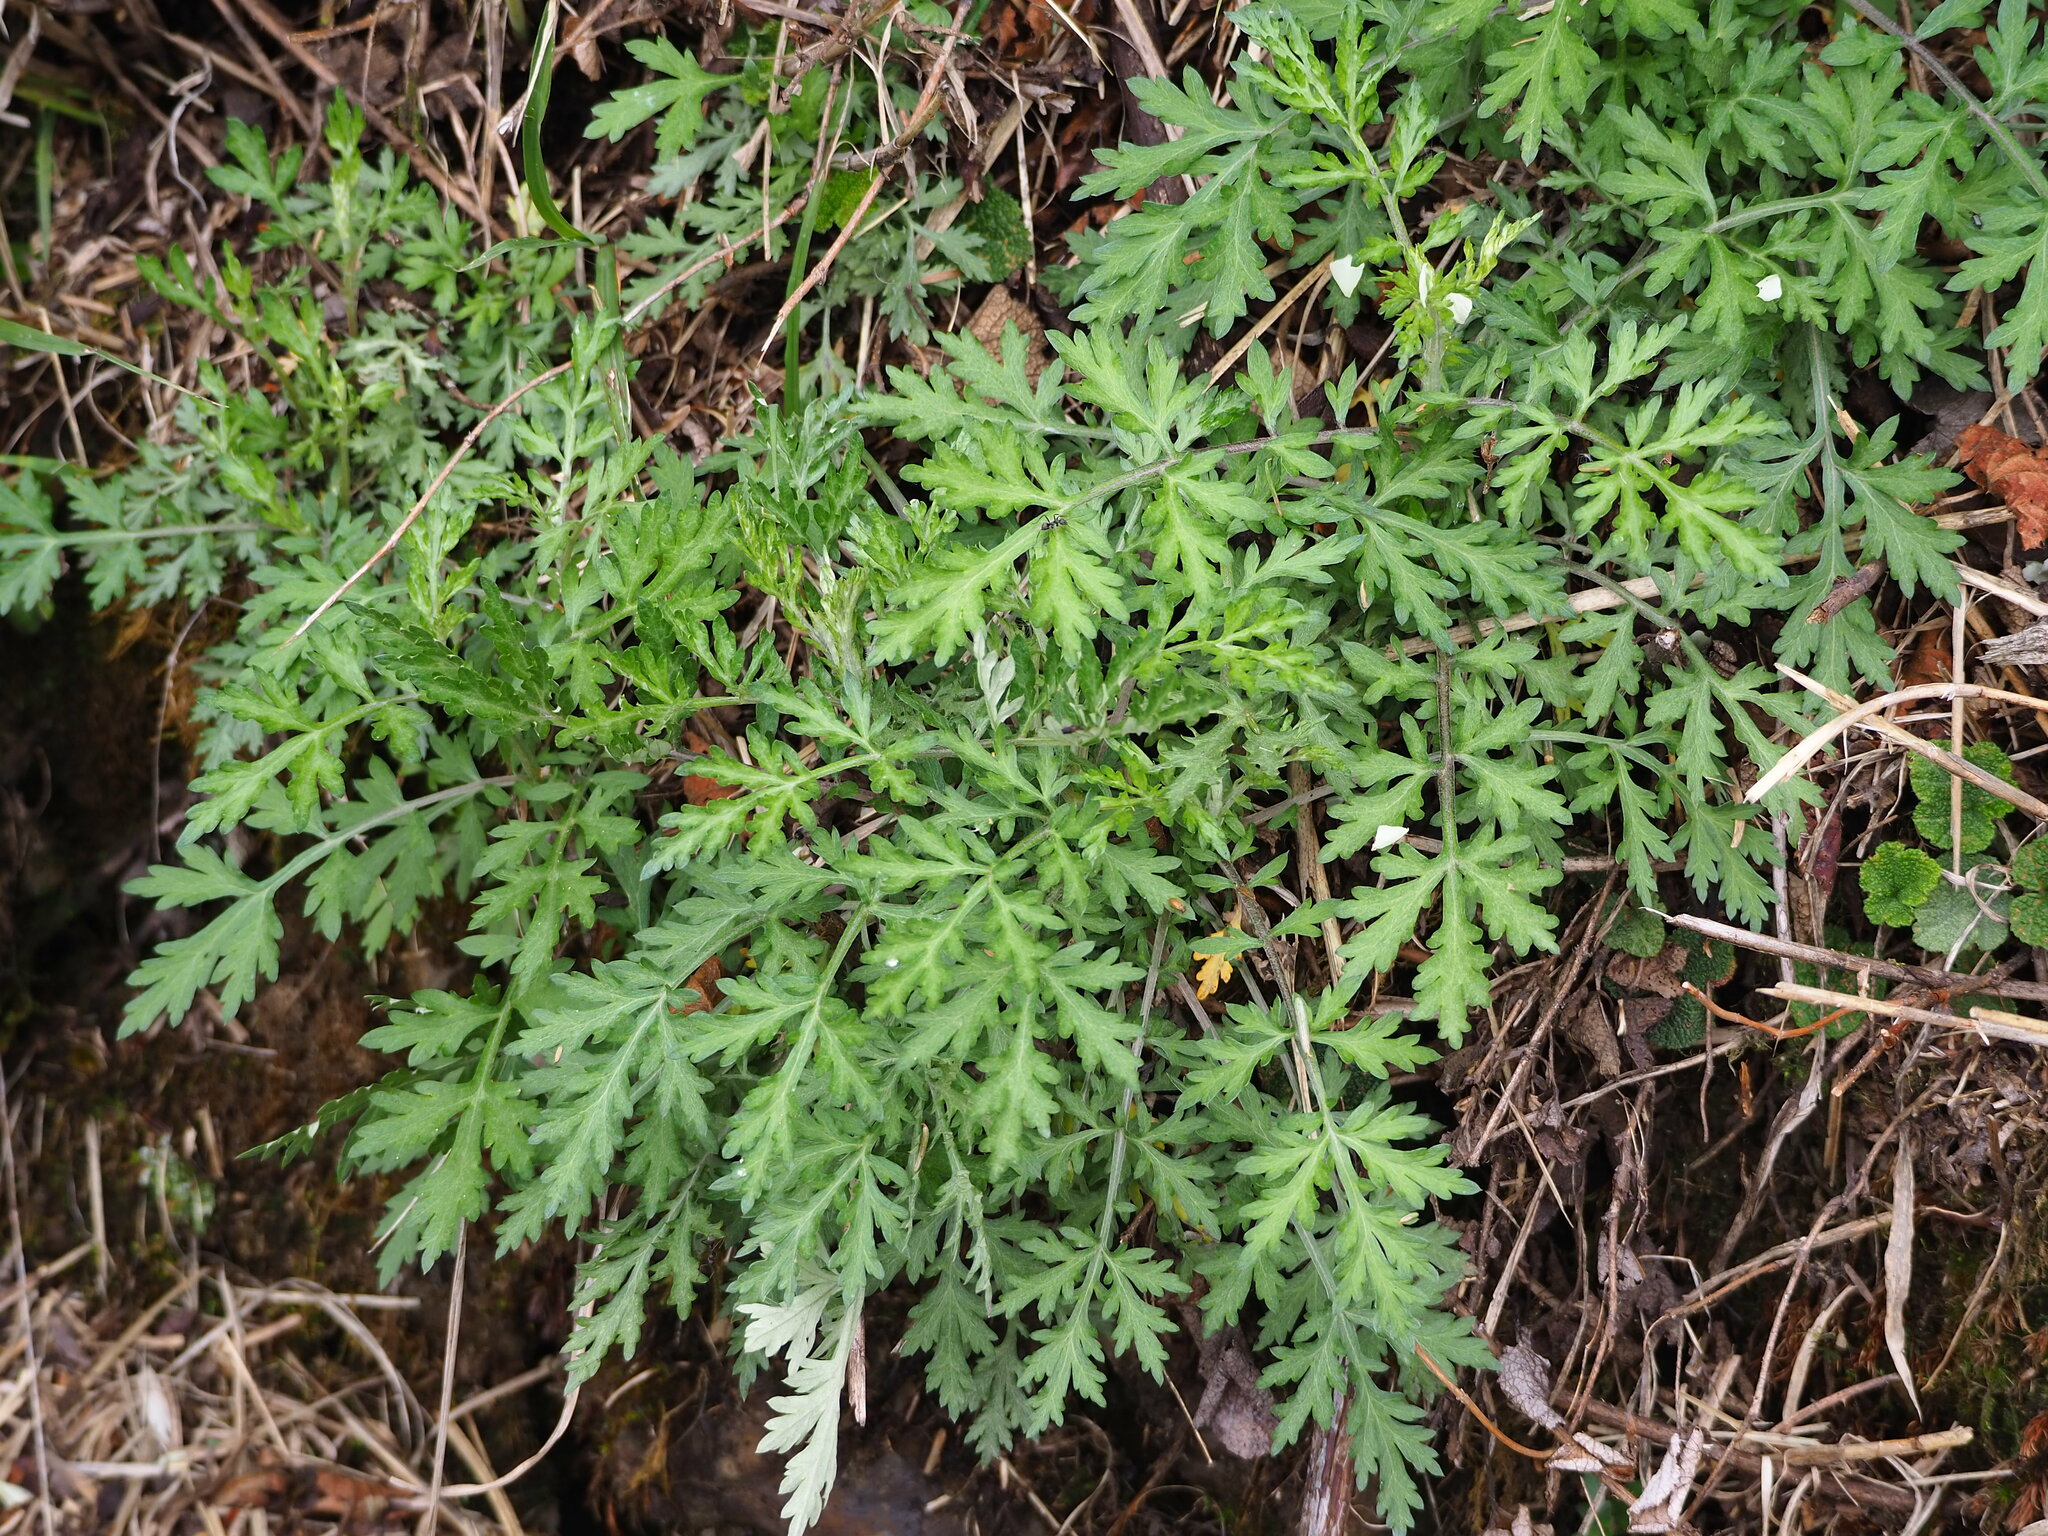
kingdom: Plantae
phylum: Tracheophyta
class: Magnoliopsida
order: Asterales
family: Asteraceae
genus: Artemisia
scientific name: Artemisia indica
